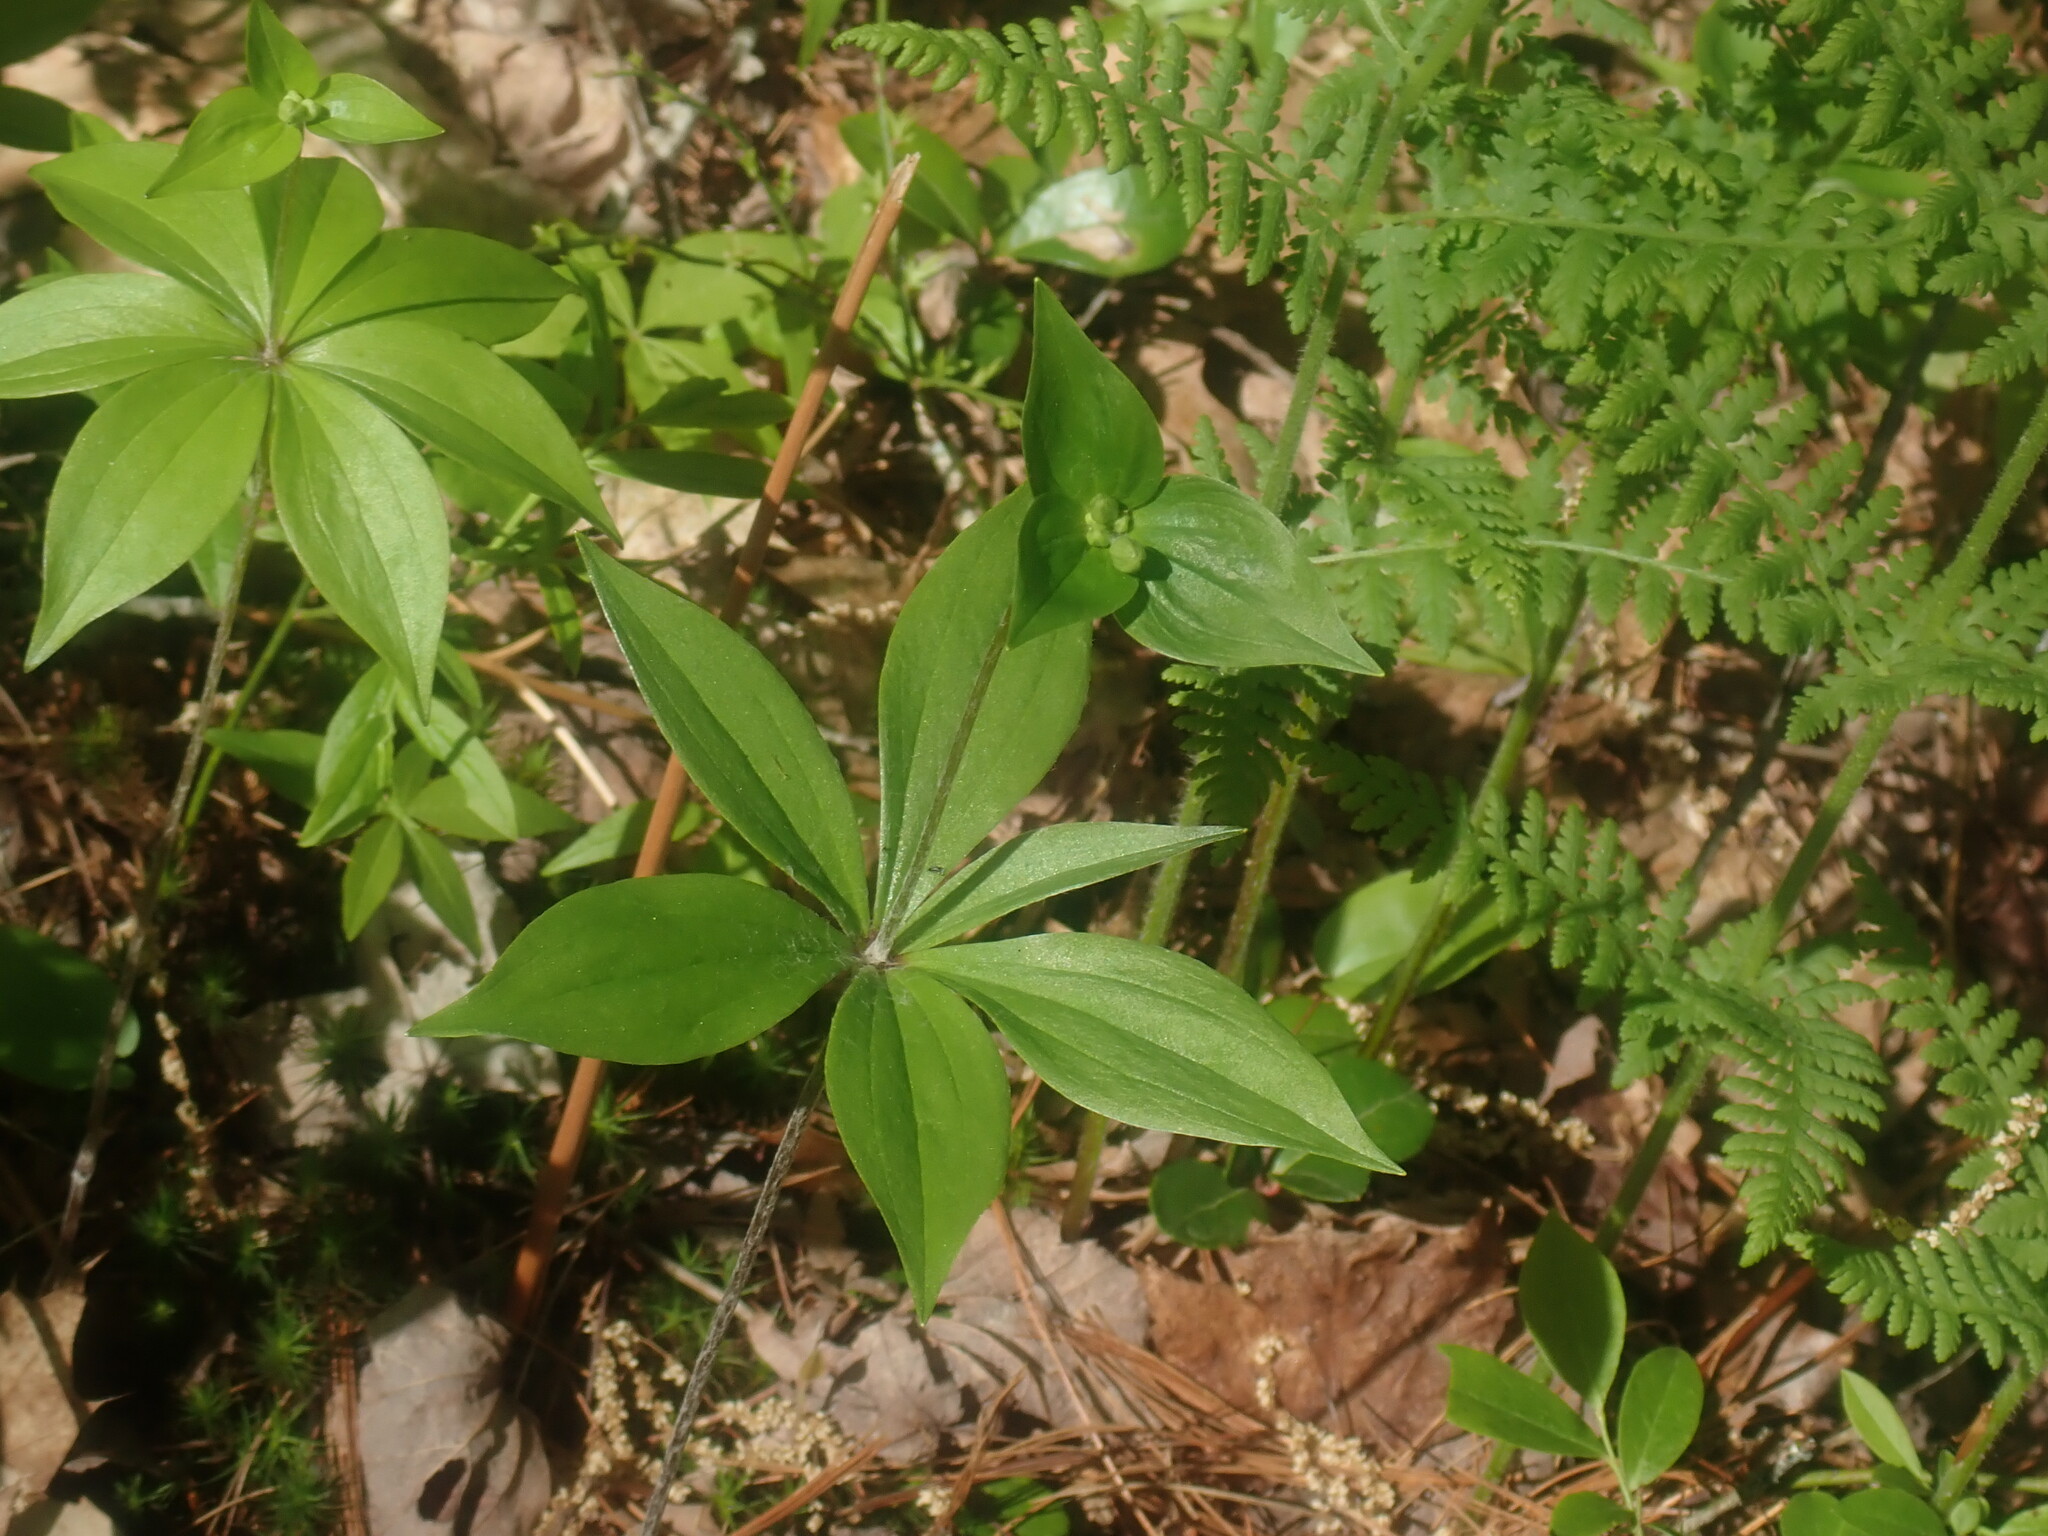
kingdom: Plantae
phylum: Tracheophyta
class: Liliopsida
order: Liliales
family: Liliaceae
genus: Medeola
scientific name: Medeola virginiana
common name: Indian cucumber-root
